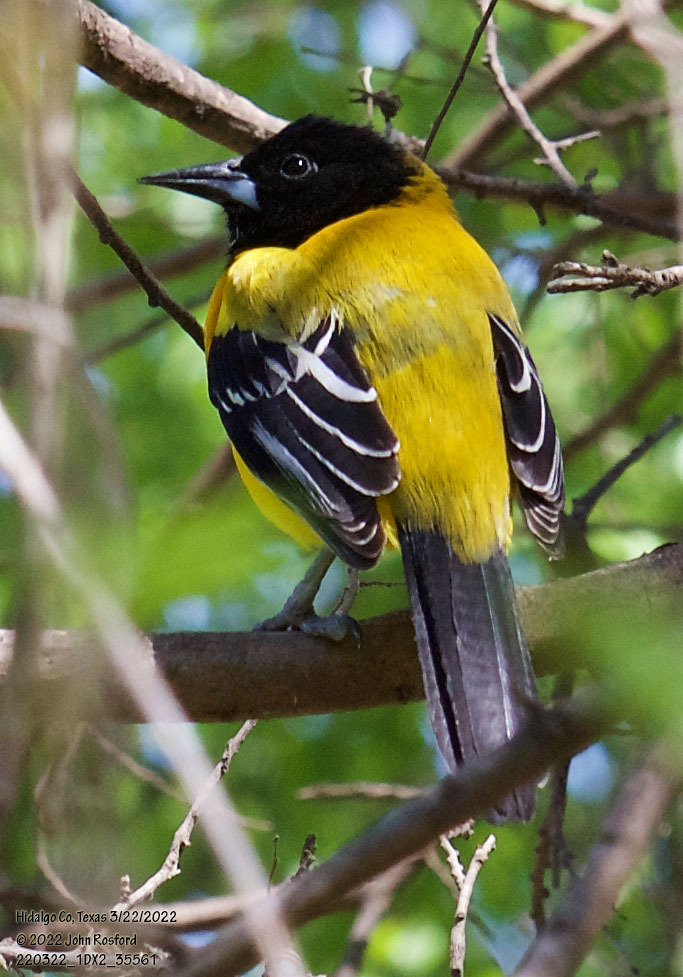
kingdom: Animalia
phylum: Chordata
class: Aves
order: Passeriformes
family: Icteridae
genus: Icterus
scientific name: Icterus graduacauda
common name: Audubon's oriole
